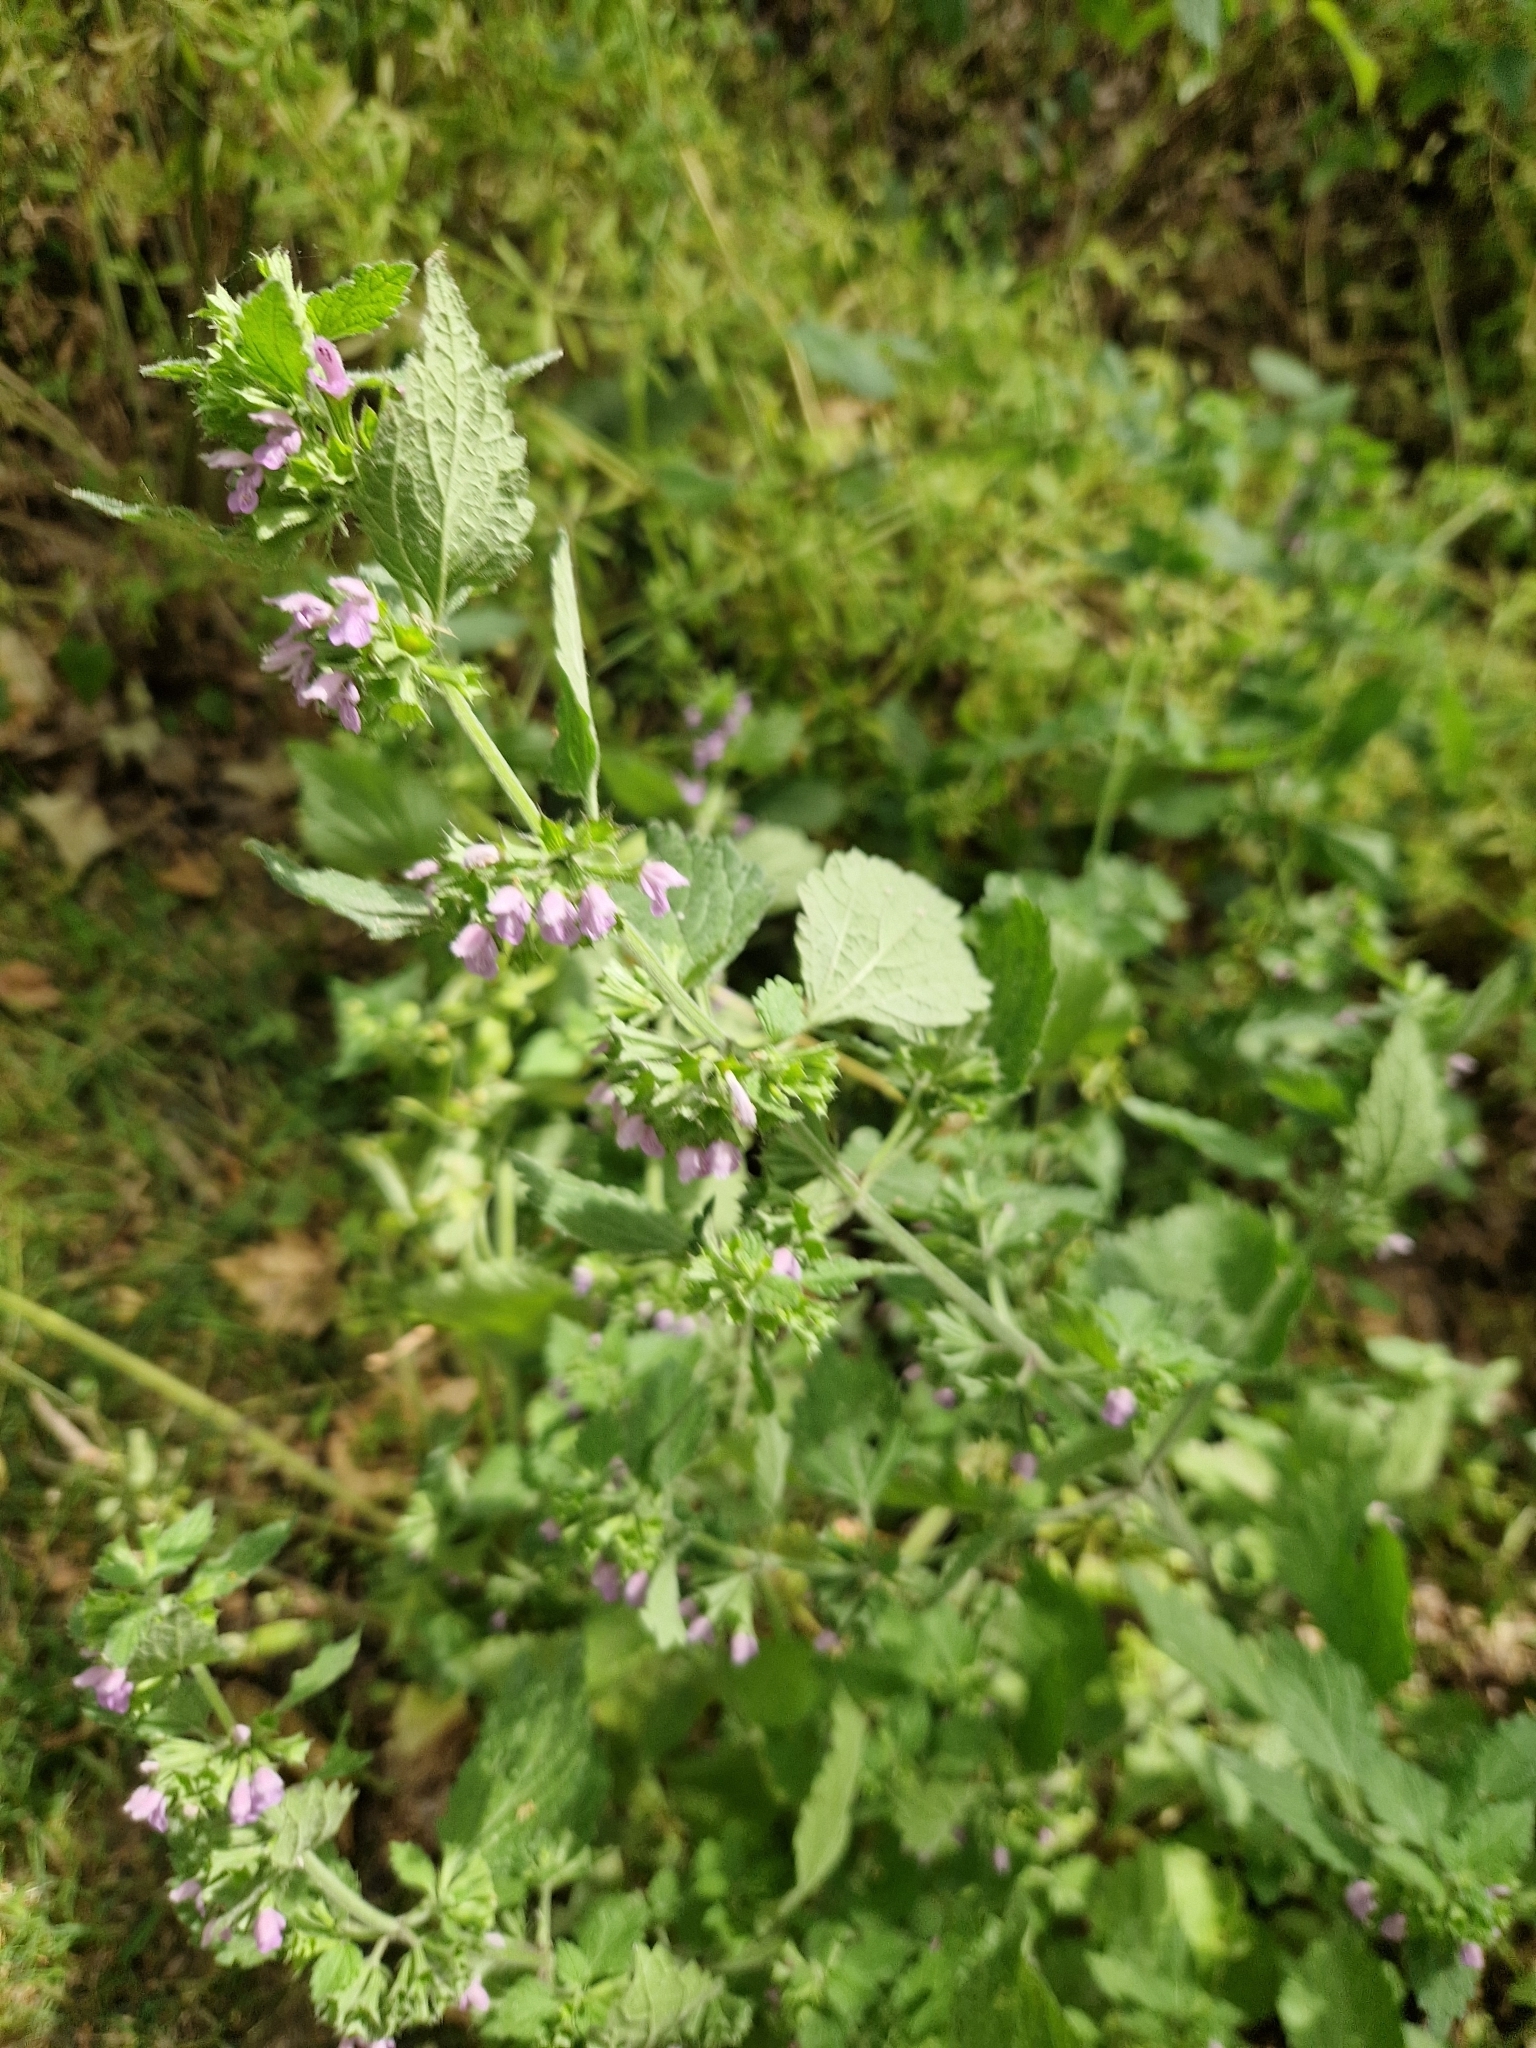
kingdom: Plantae
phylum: Tracheophyta
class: Magnoliopsida
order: Lamiales
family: Lamiaceae
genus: Ballota
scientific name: Ballota nigra
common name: Black horehound
